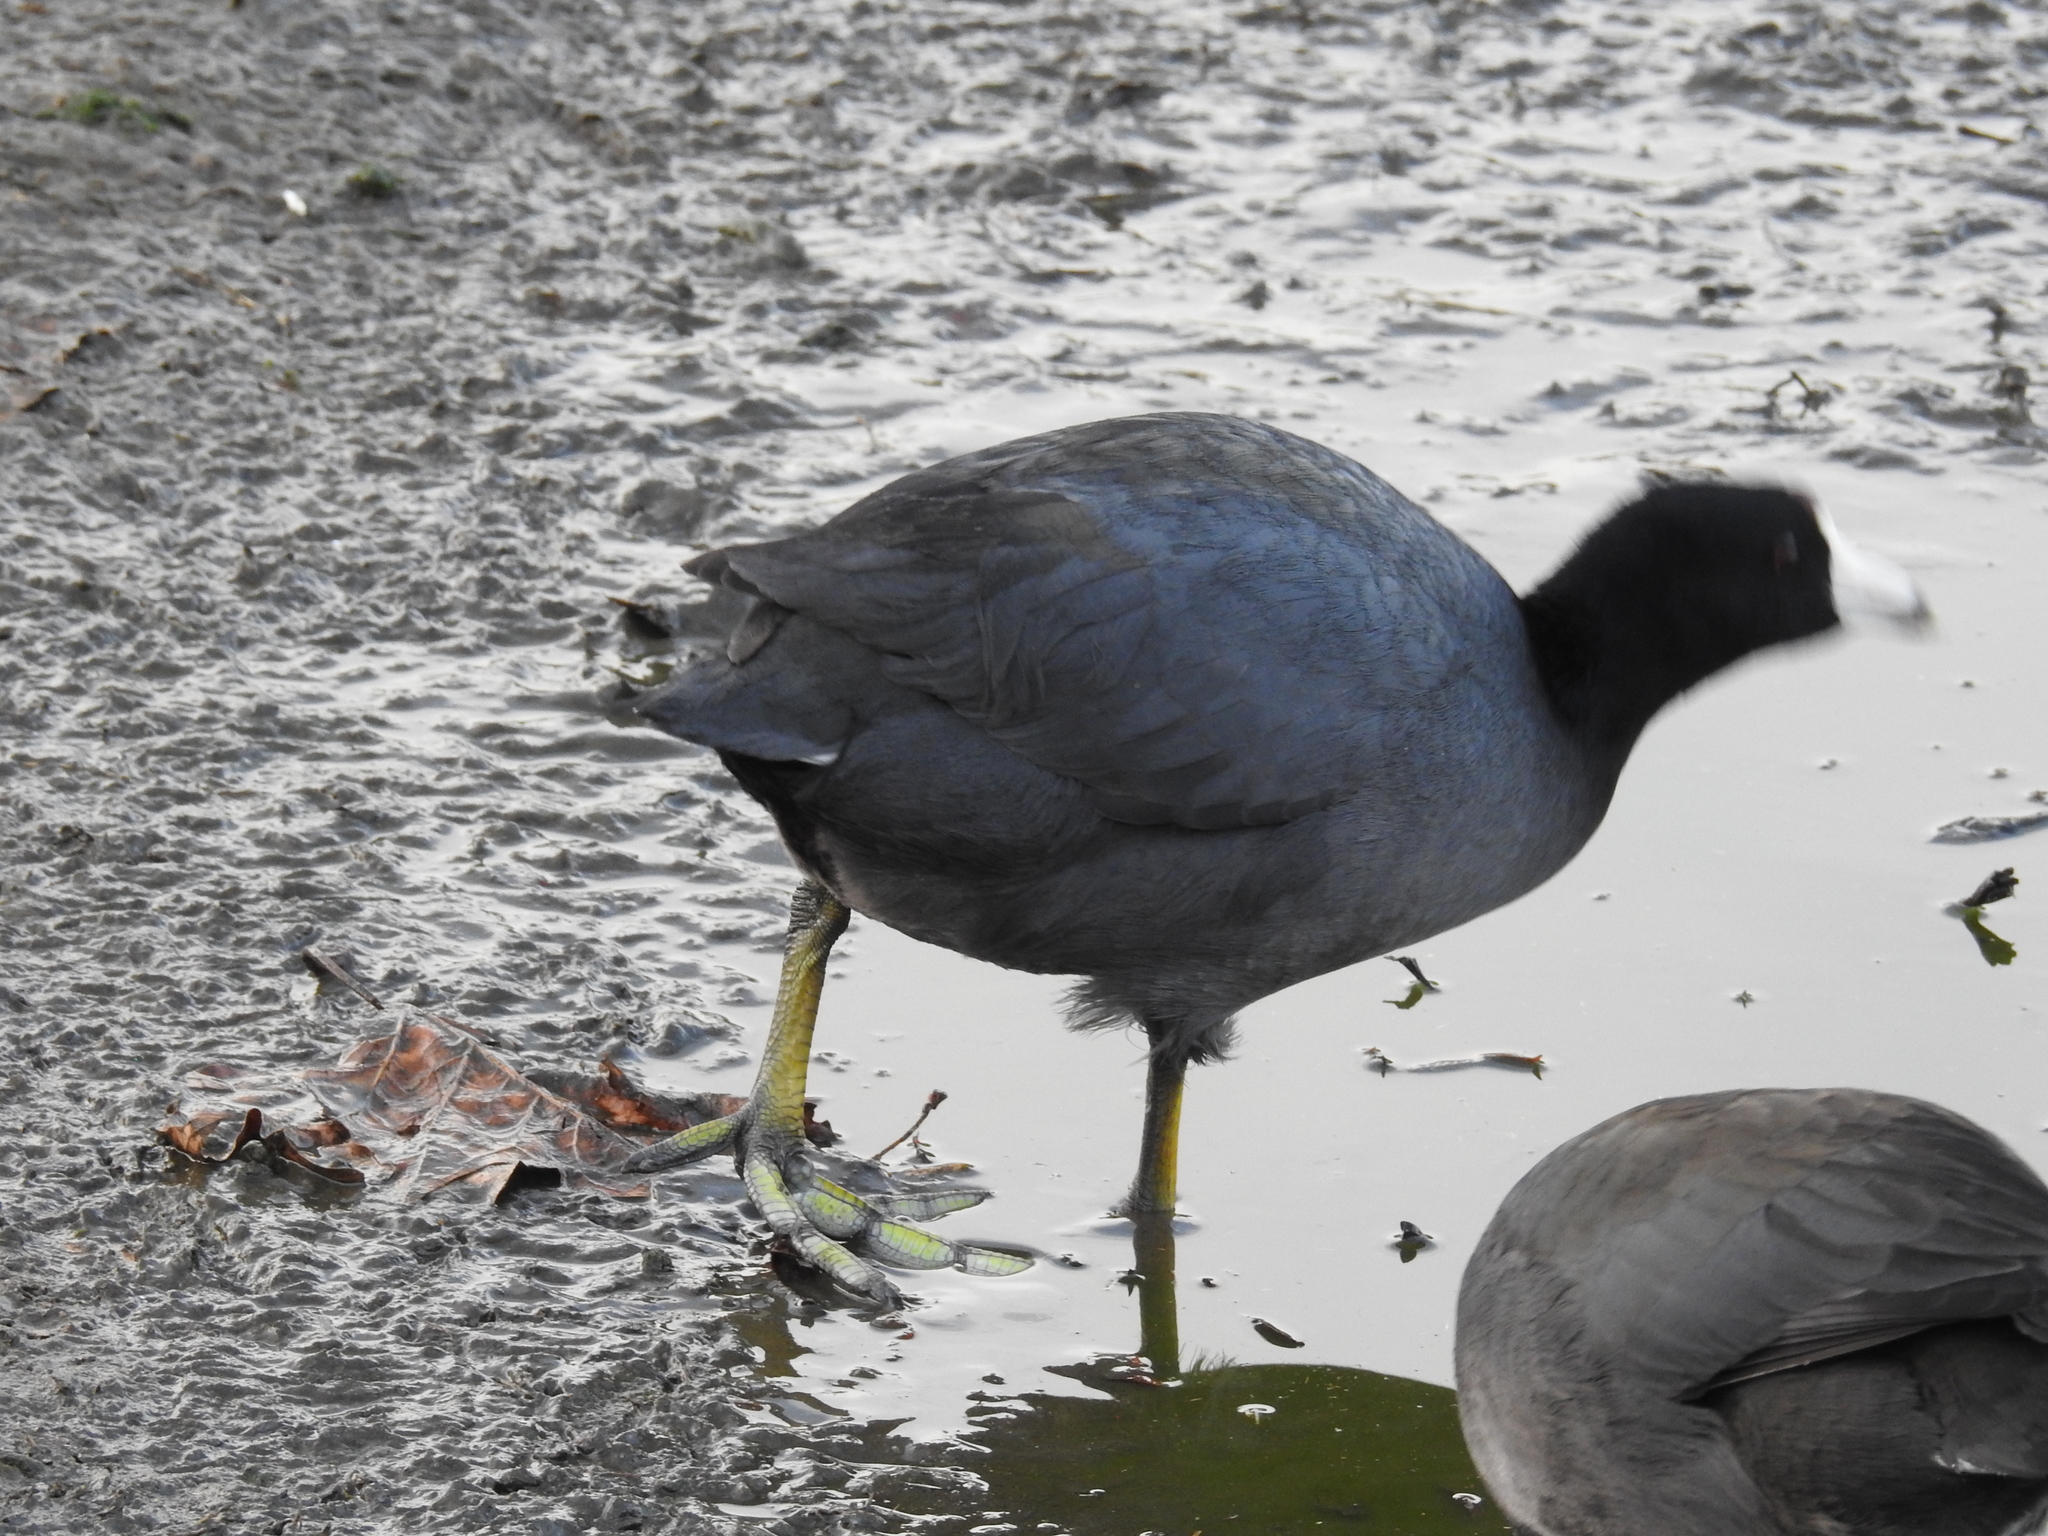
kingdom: Animalia
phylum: Chordata
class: Aves
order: Gruiformes
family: Rallidae
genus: Fulica
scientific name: Fulica americana
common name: American coot
